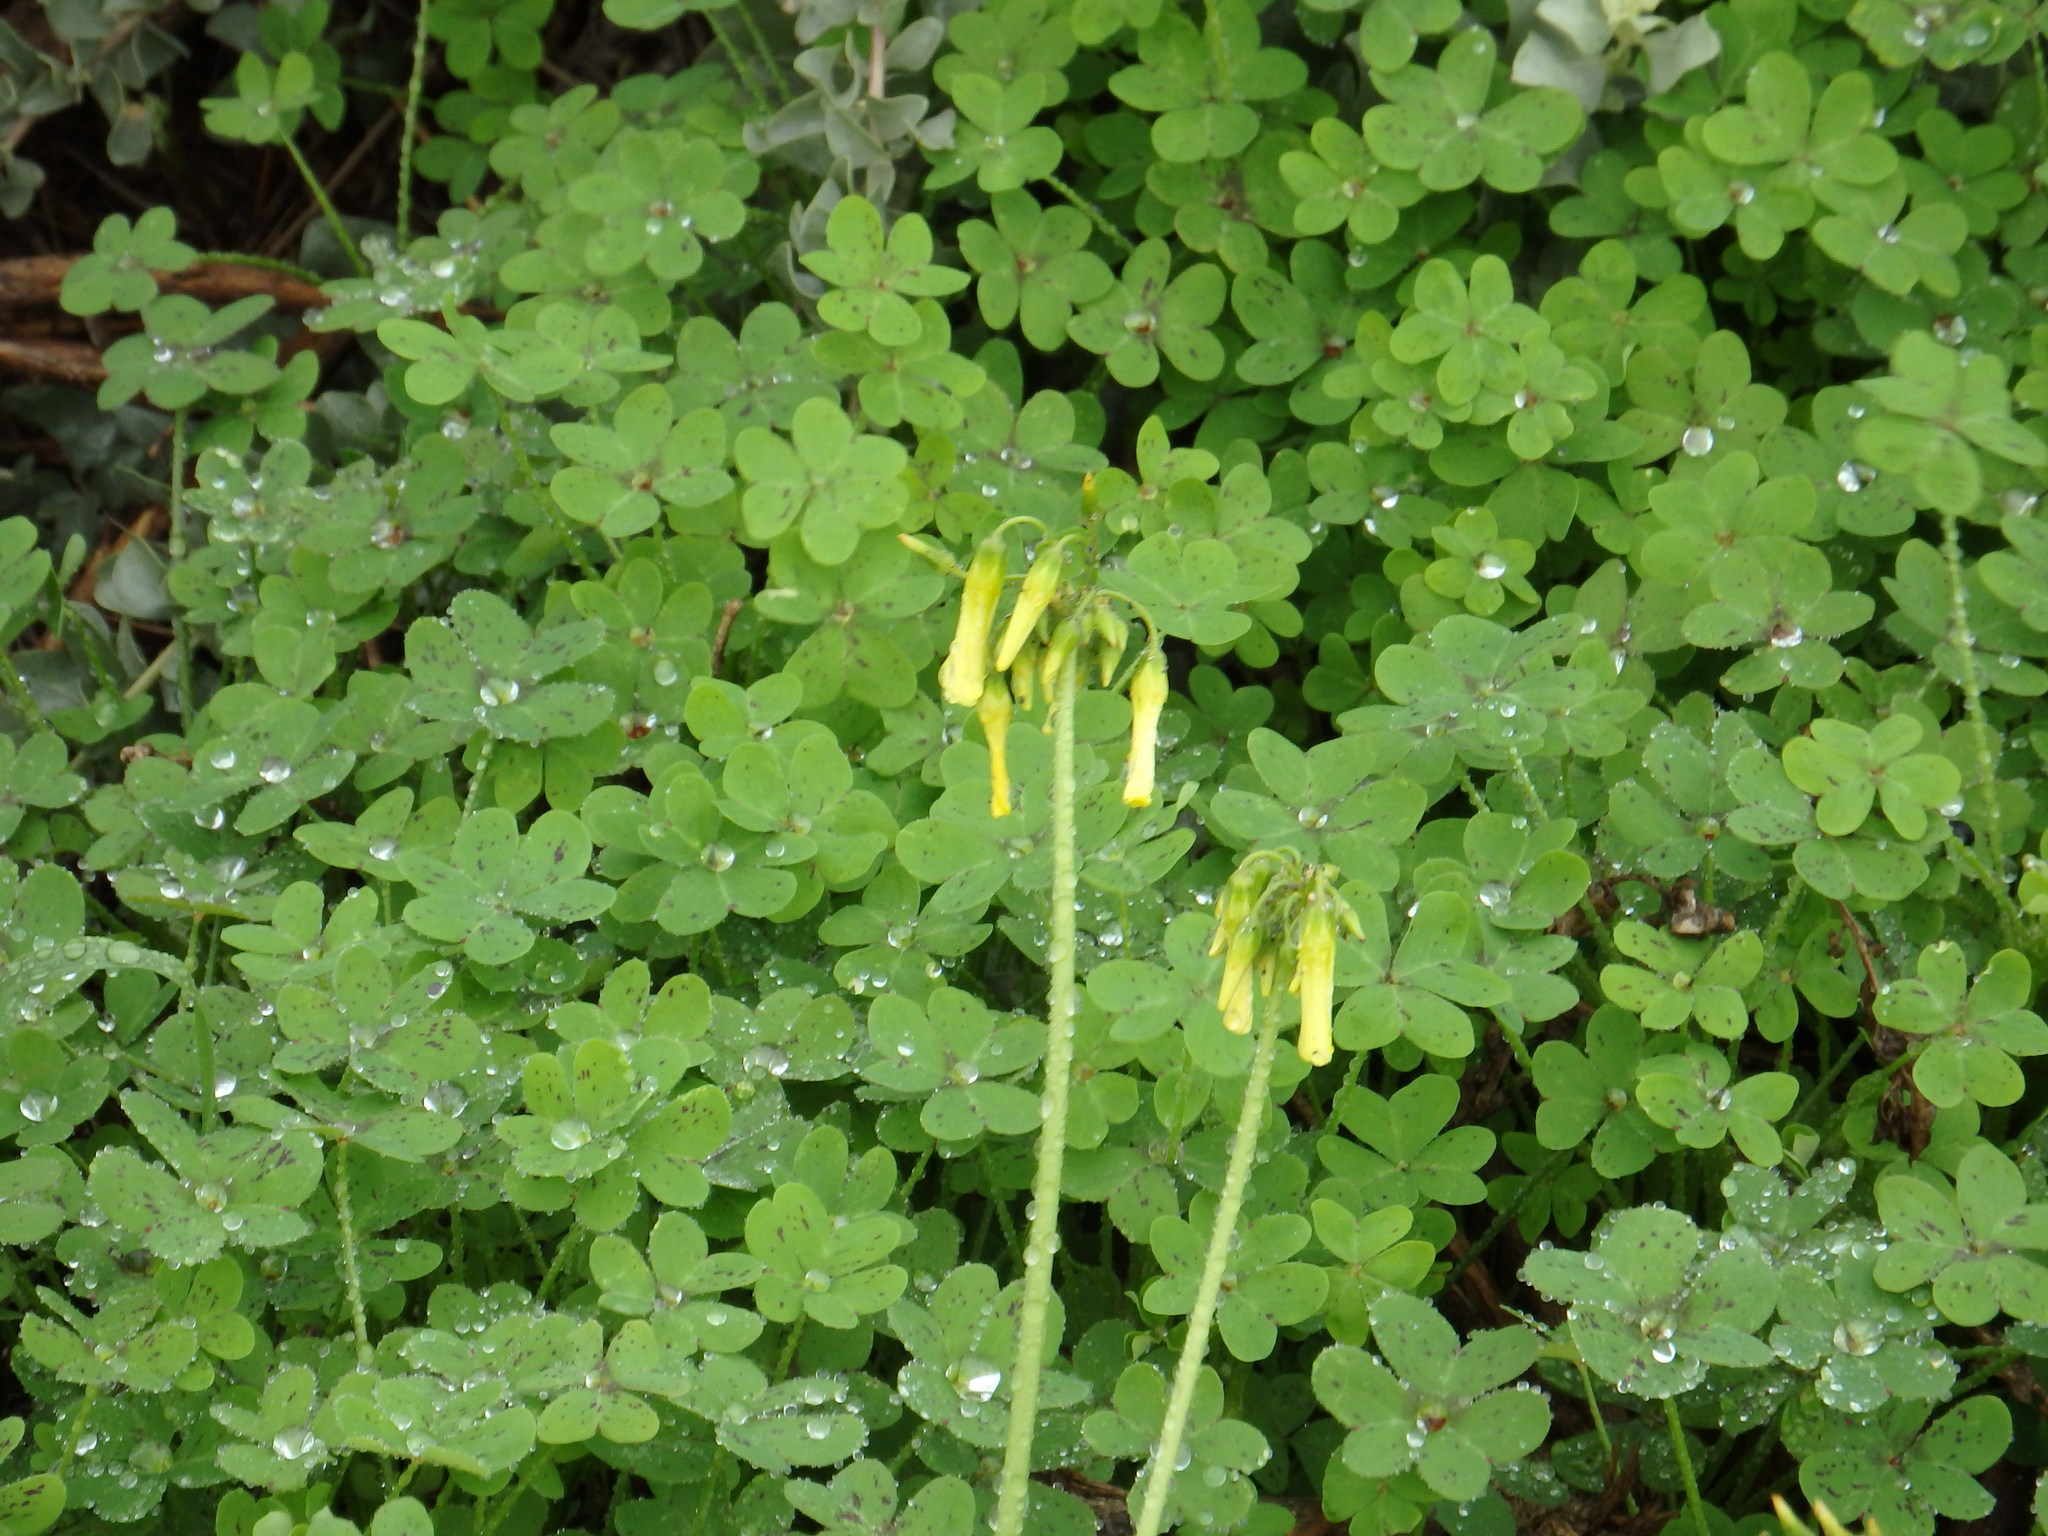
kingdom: Plantae
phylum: Tracheophyta
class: Magnoliopsida
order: Oxalidales
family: Oxalidaceae
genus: Oxalis
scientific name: Oxalis pes-caprae
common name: Bermuda-buttercup
